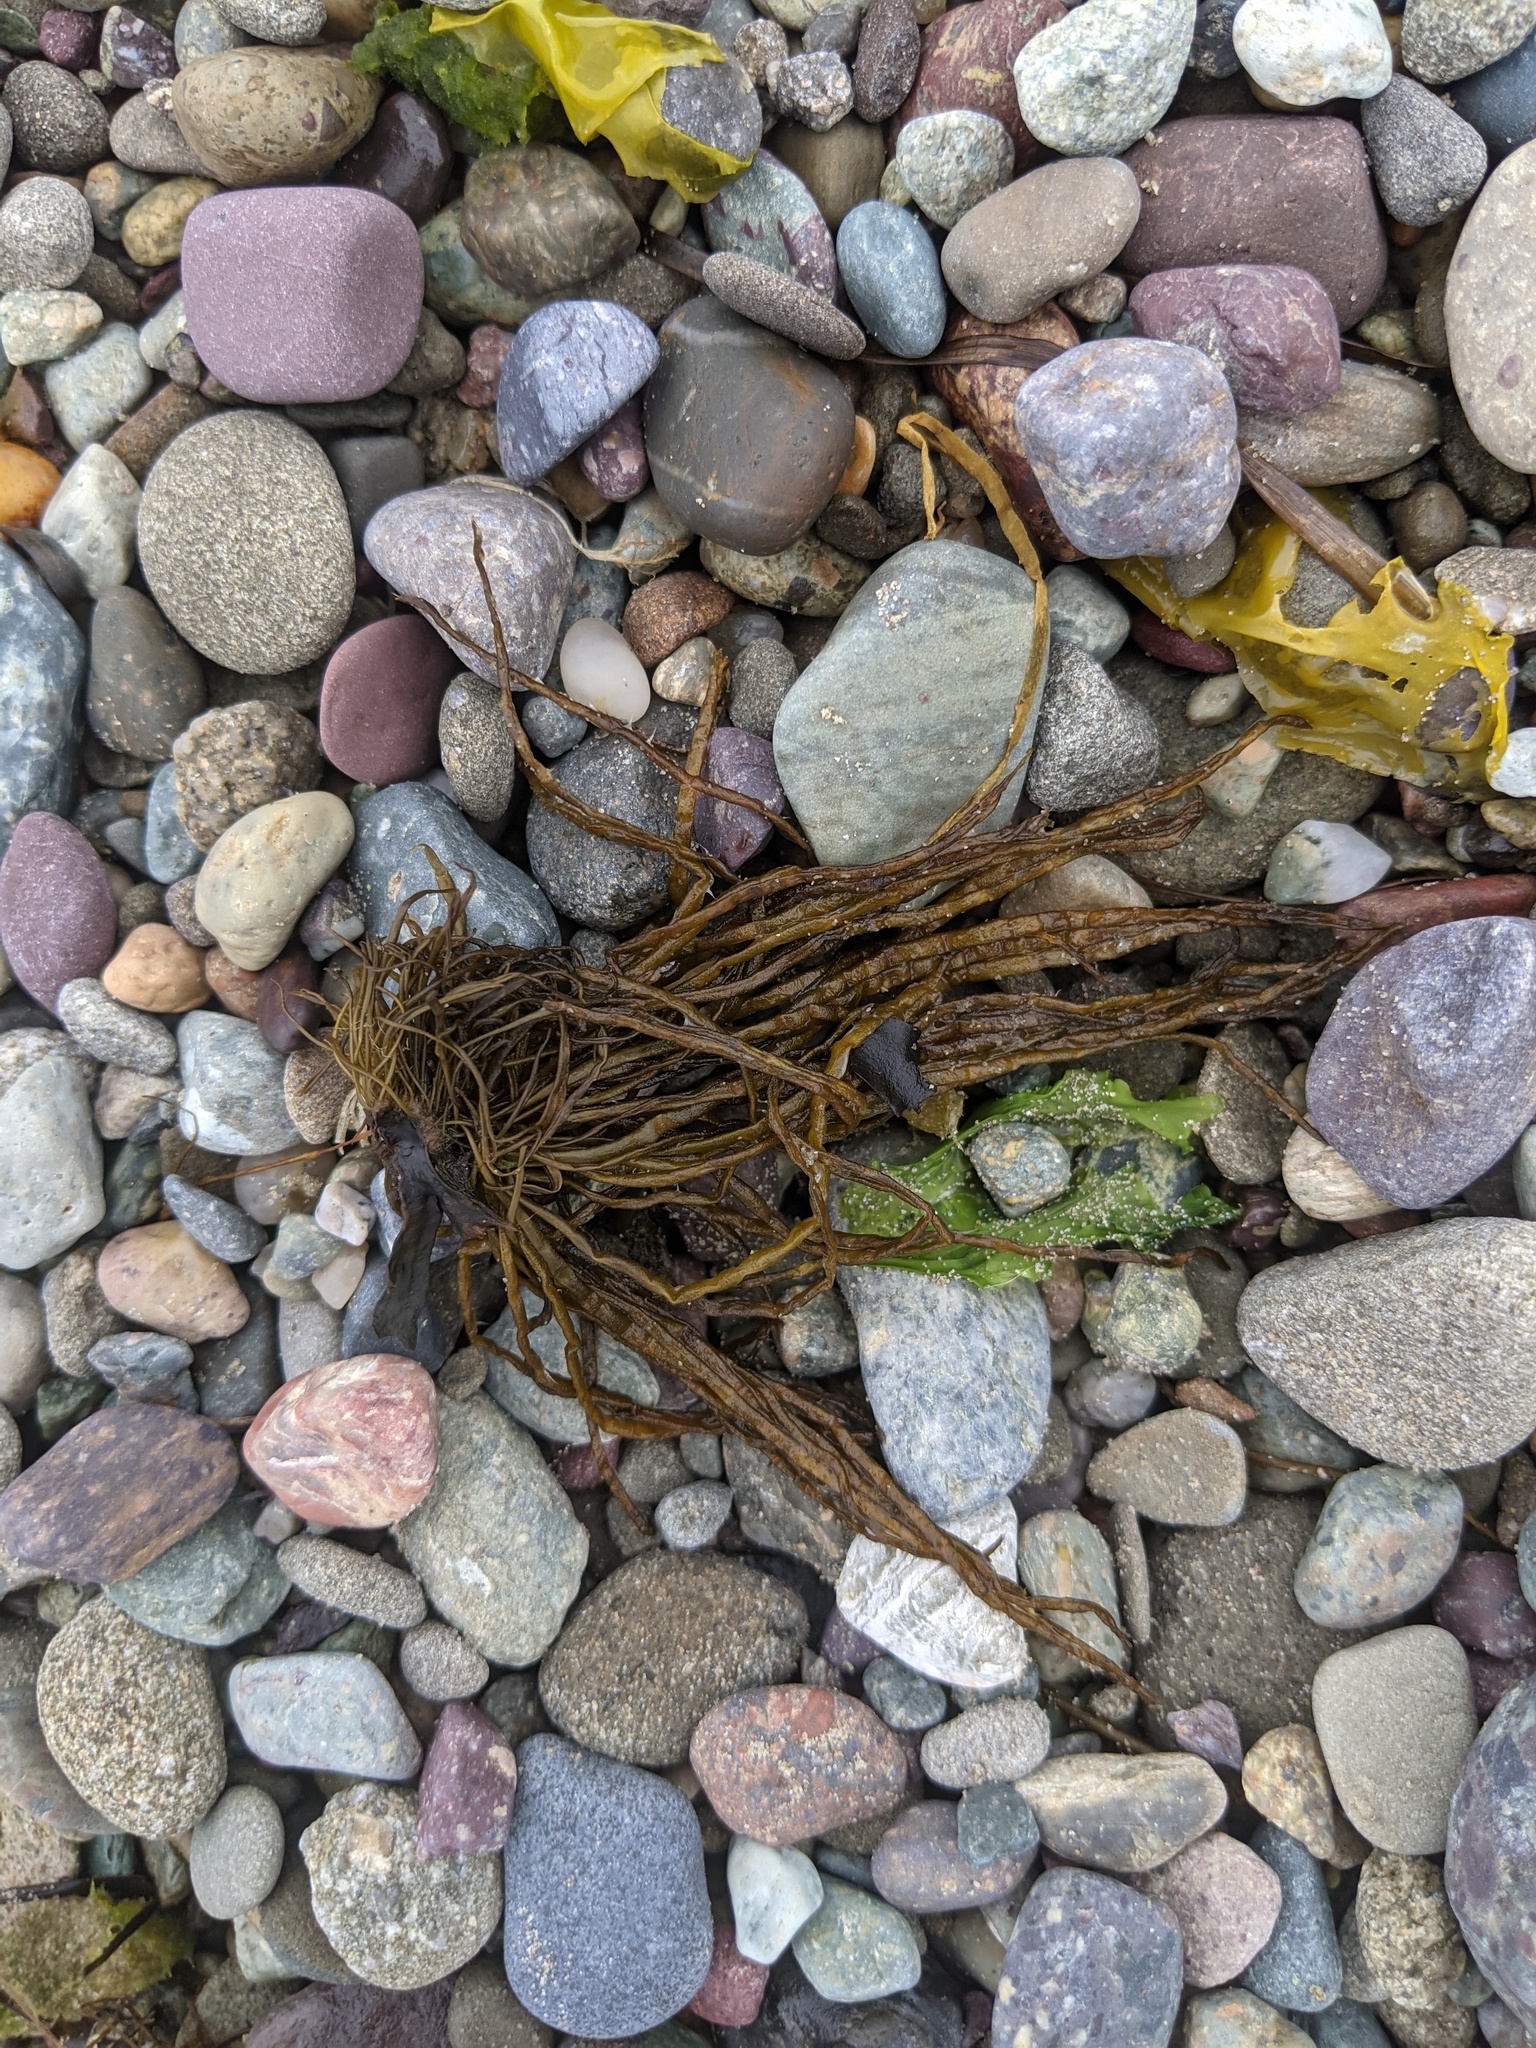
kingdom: Chromista
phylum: Ochrophyta
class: Phaeophyceae
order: Laminariales
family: Chordaceae
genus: Chorda
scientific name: Chorda filum
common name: Mermaid's tresses
